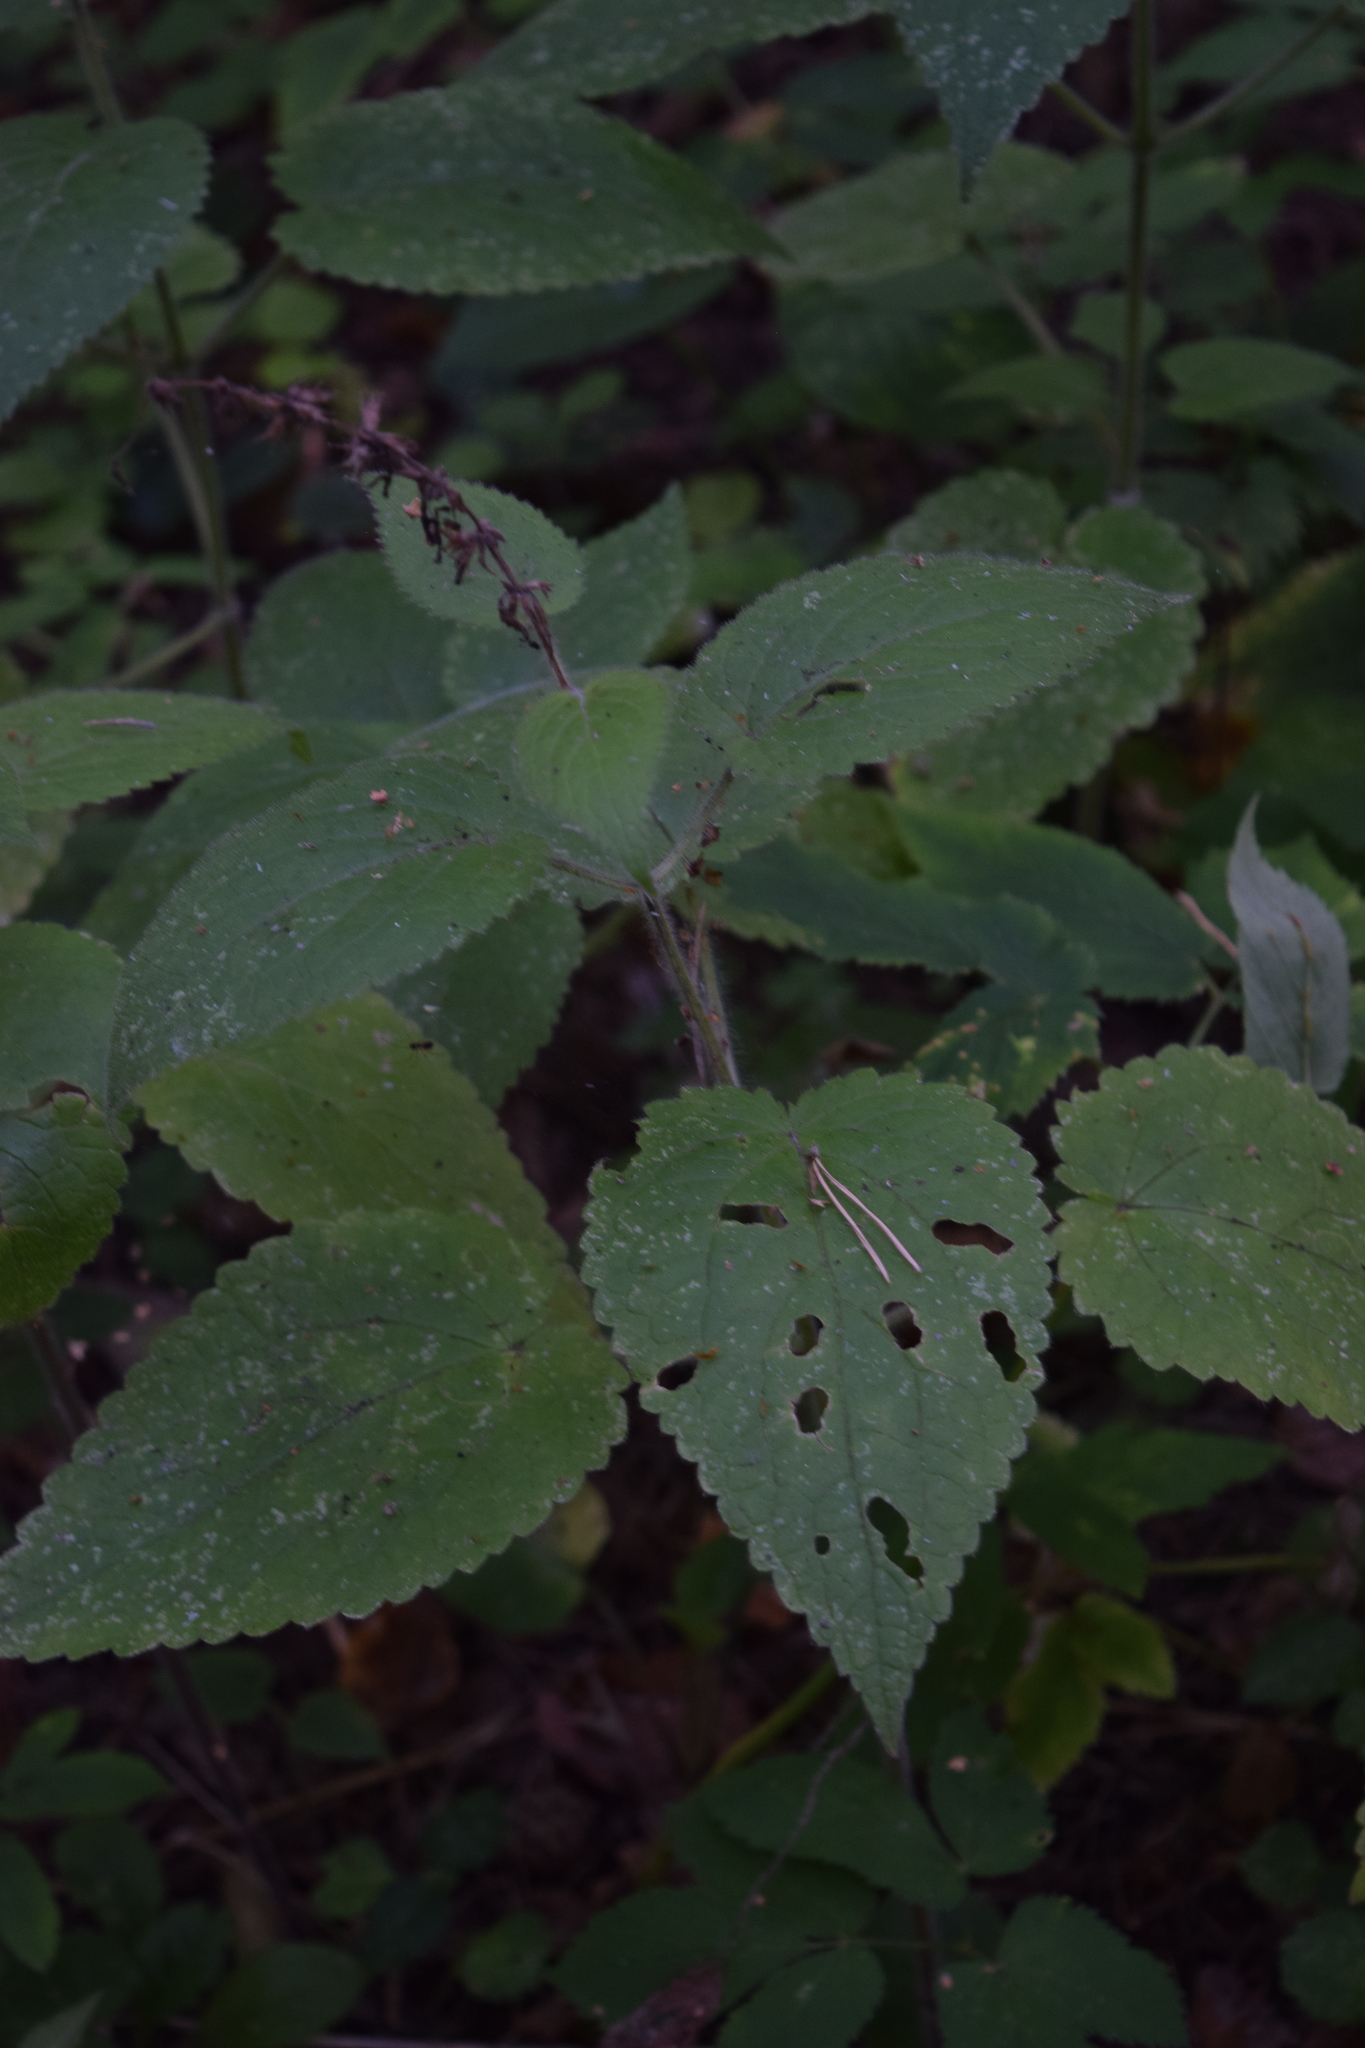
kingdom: Plantae
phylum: Tracheophyta
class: Magnoliopsida
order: Lamiales
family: Lamiaceae
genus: Stachys
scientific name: Stachys sylvatica
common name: Hedge woundwort
